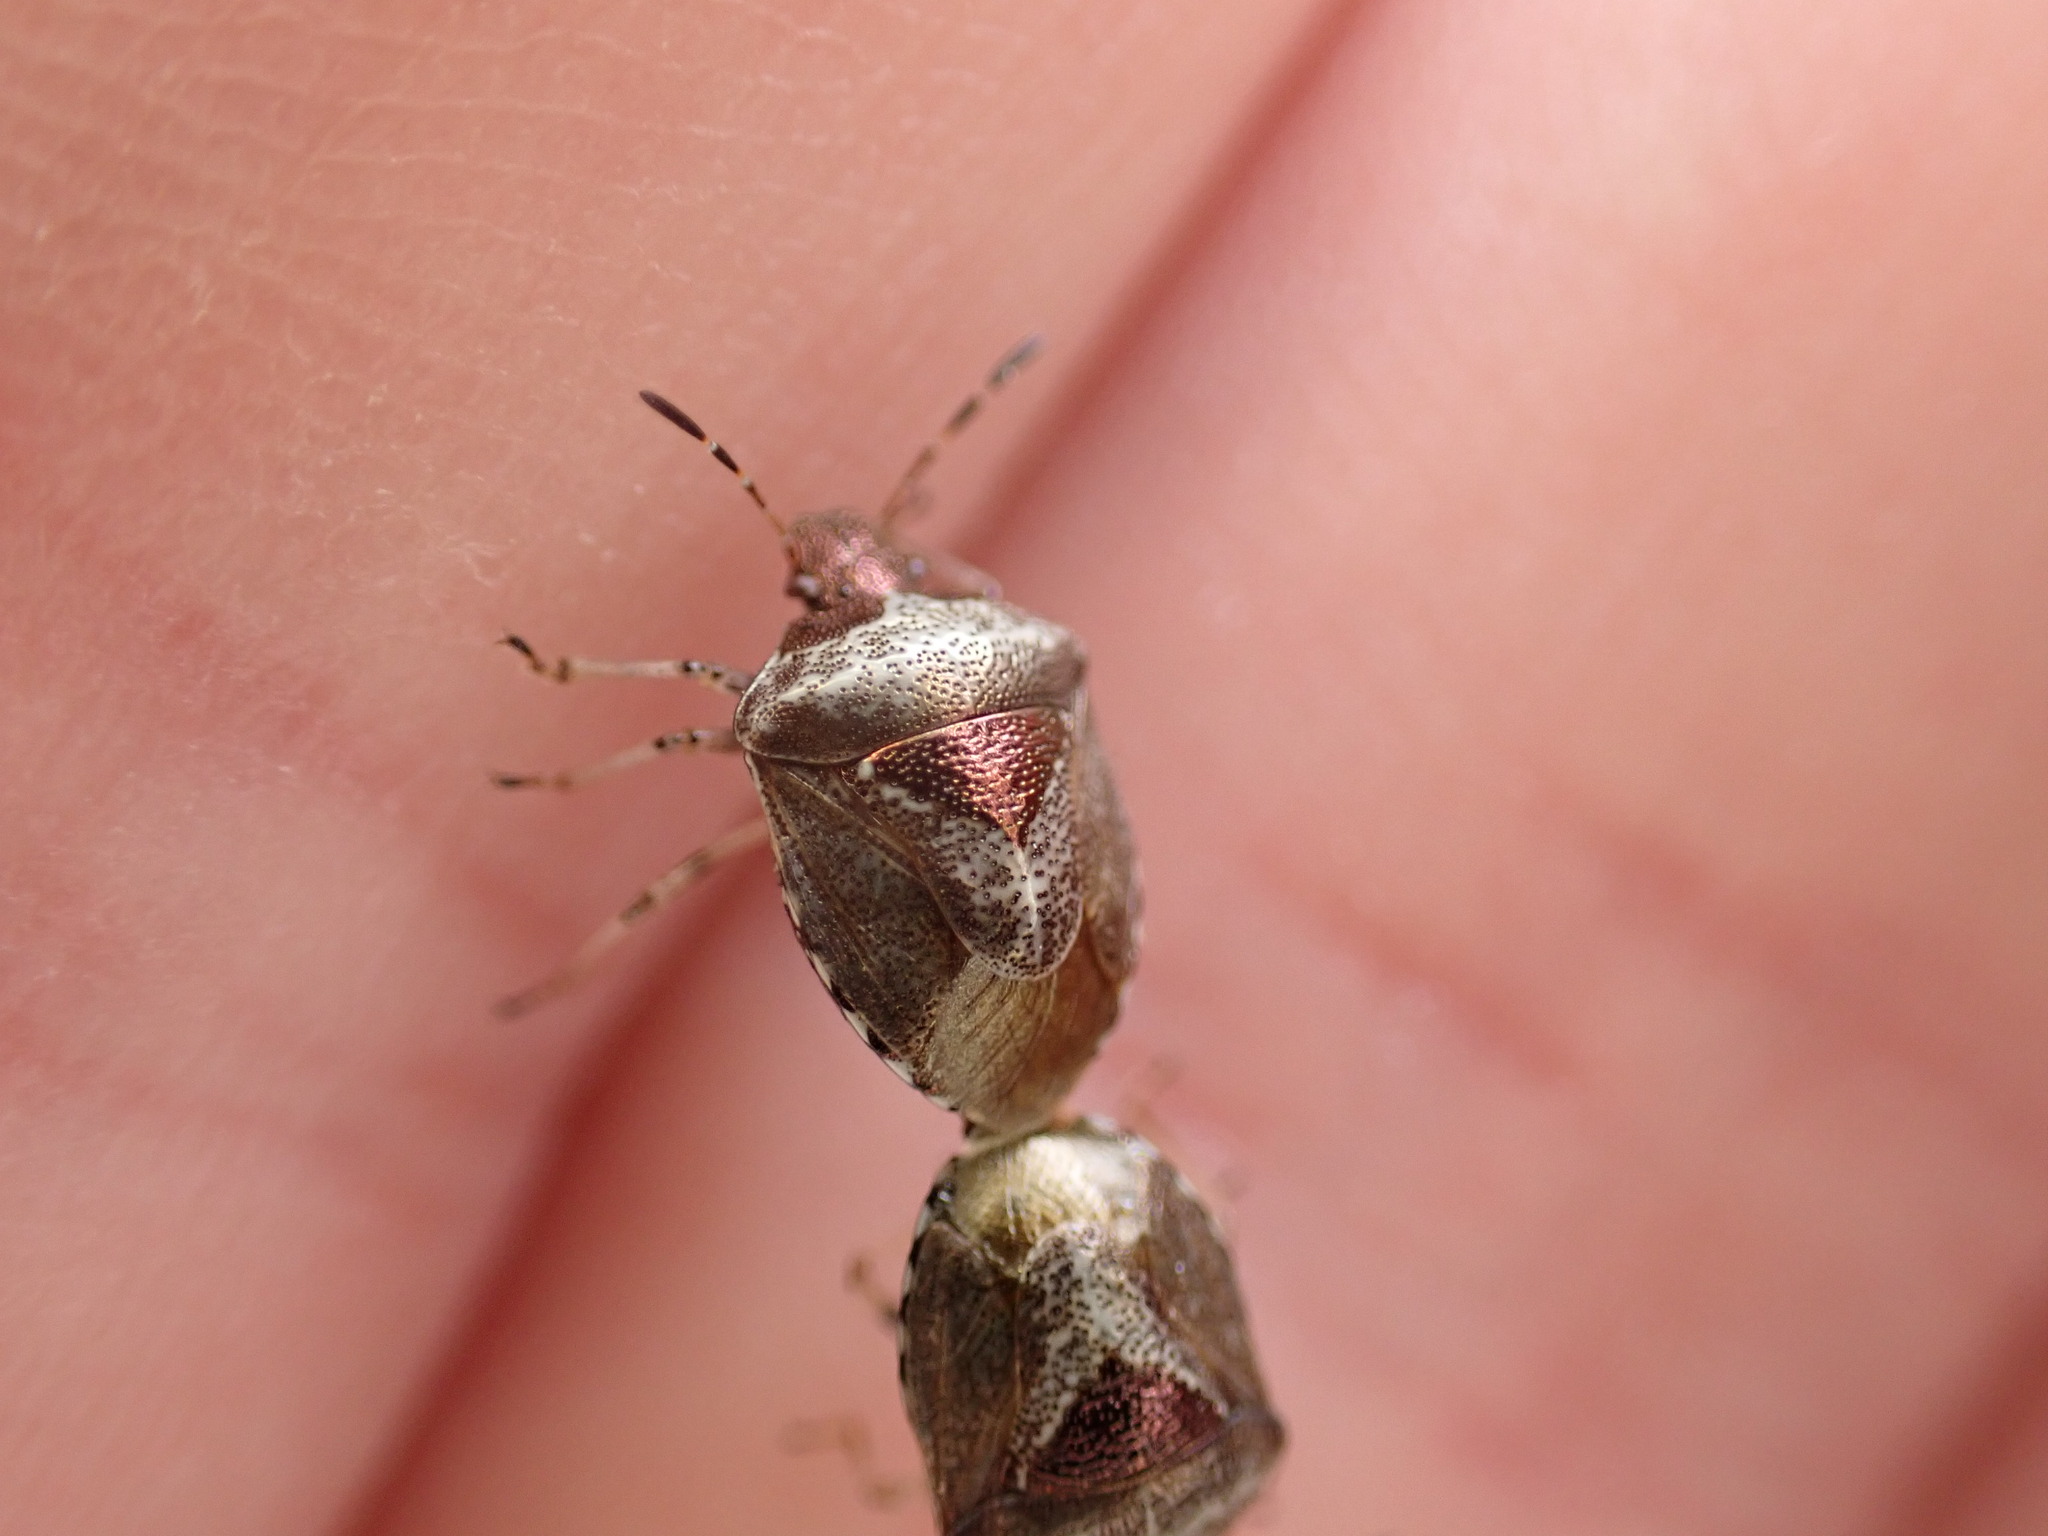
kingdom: Animalia
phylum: Arthropoda
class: Insecta
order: Hemiptera
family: Pentatomidae
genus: Eysarcoris
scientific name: Eysarcoris venustissimus
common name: Woundwort shieldbug
